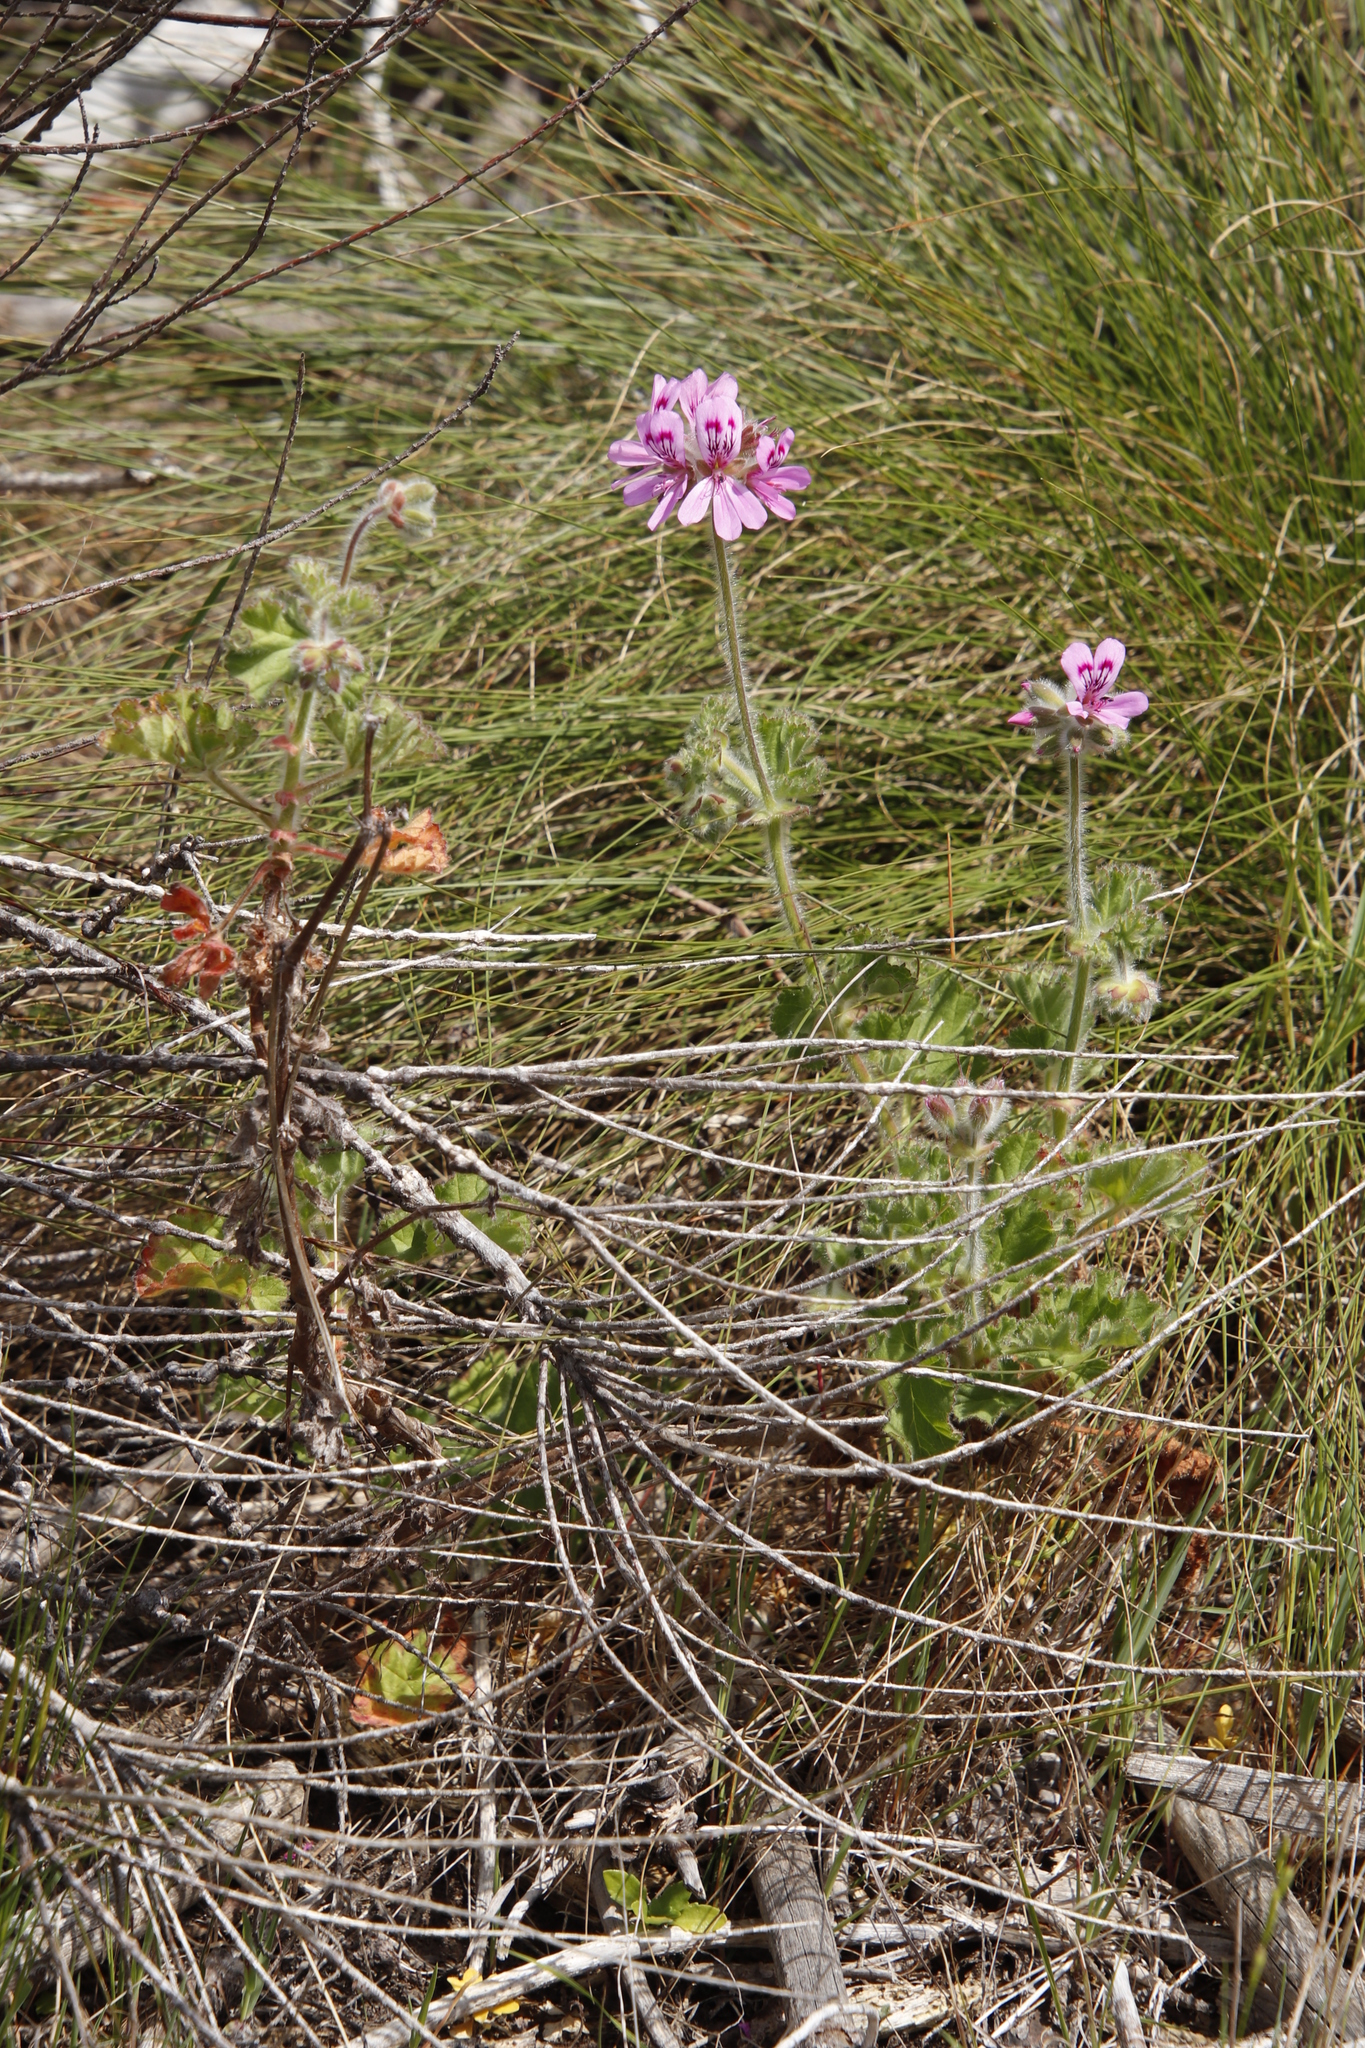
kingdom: Plantae
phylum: Tracheophyta
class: Magnoliopsida
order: Geraniales
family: Geraniaceae
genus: Pelargonium
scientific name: Pelargonium capitatum
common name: Rose scented geranium
